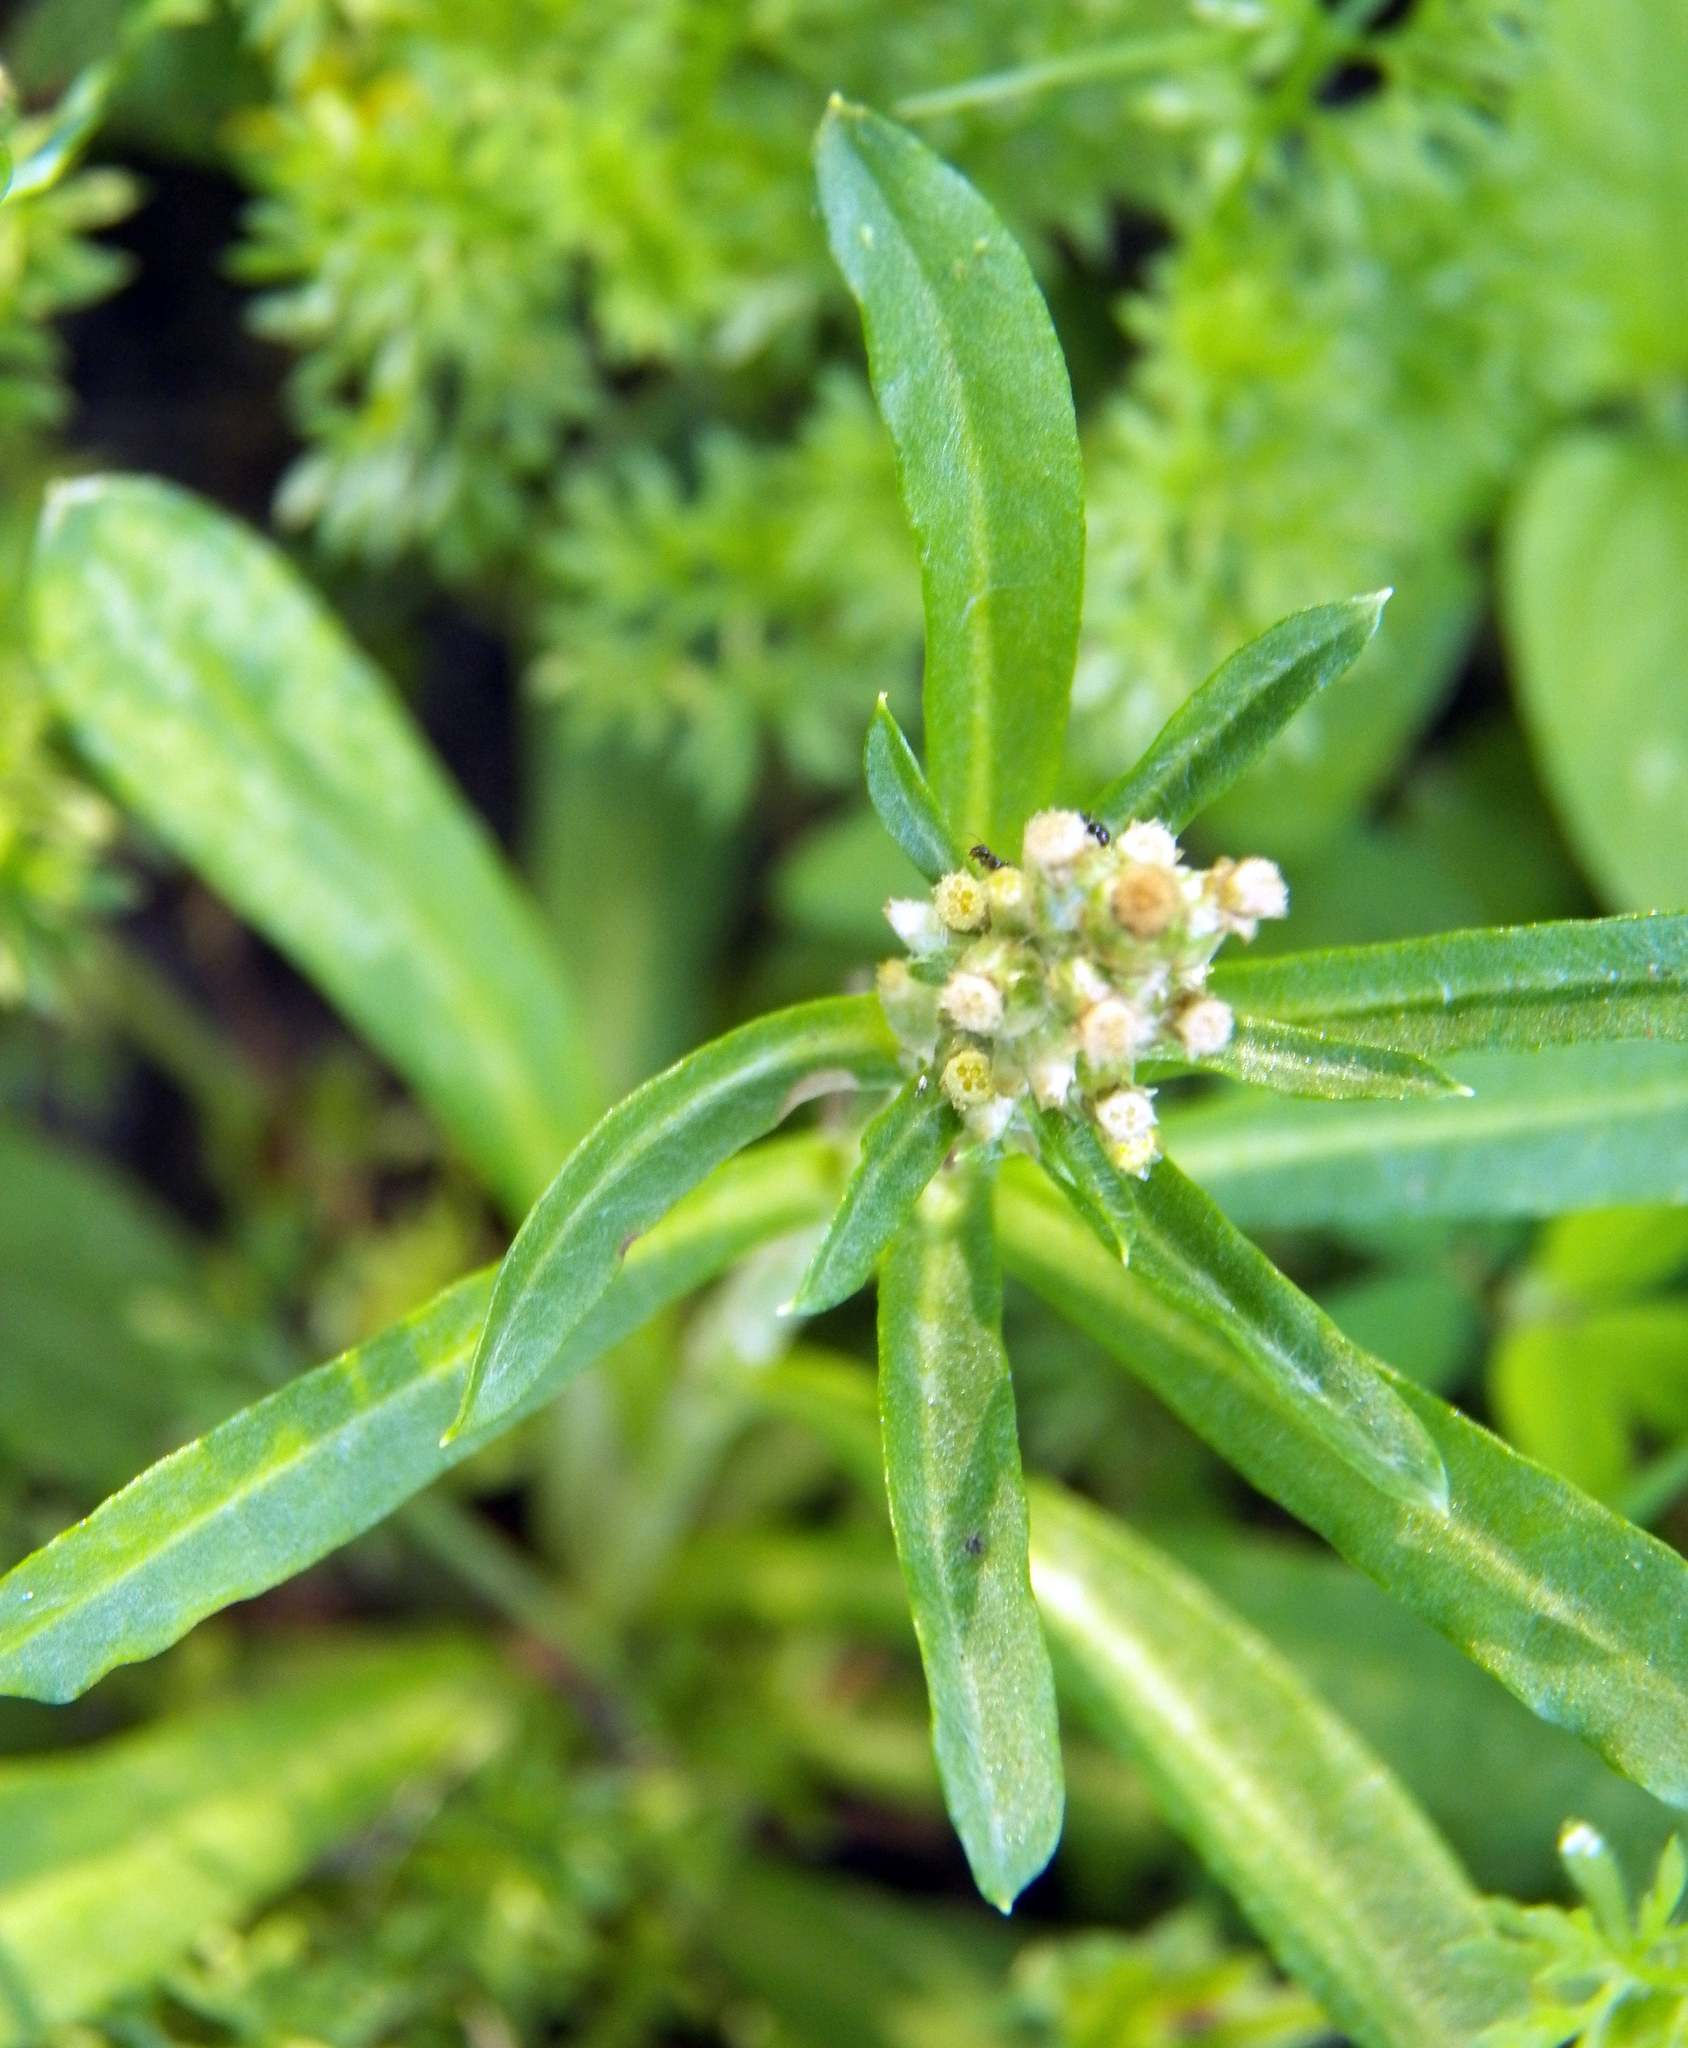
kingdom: Plantae
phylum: Tracheophyta
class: Magnoliopsida
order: Asterales
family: Asteraceae
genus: Gamochaeta
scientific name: Gamochaeta americana
